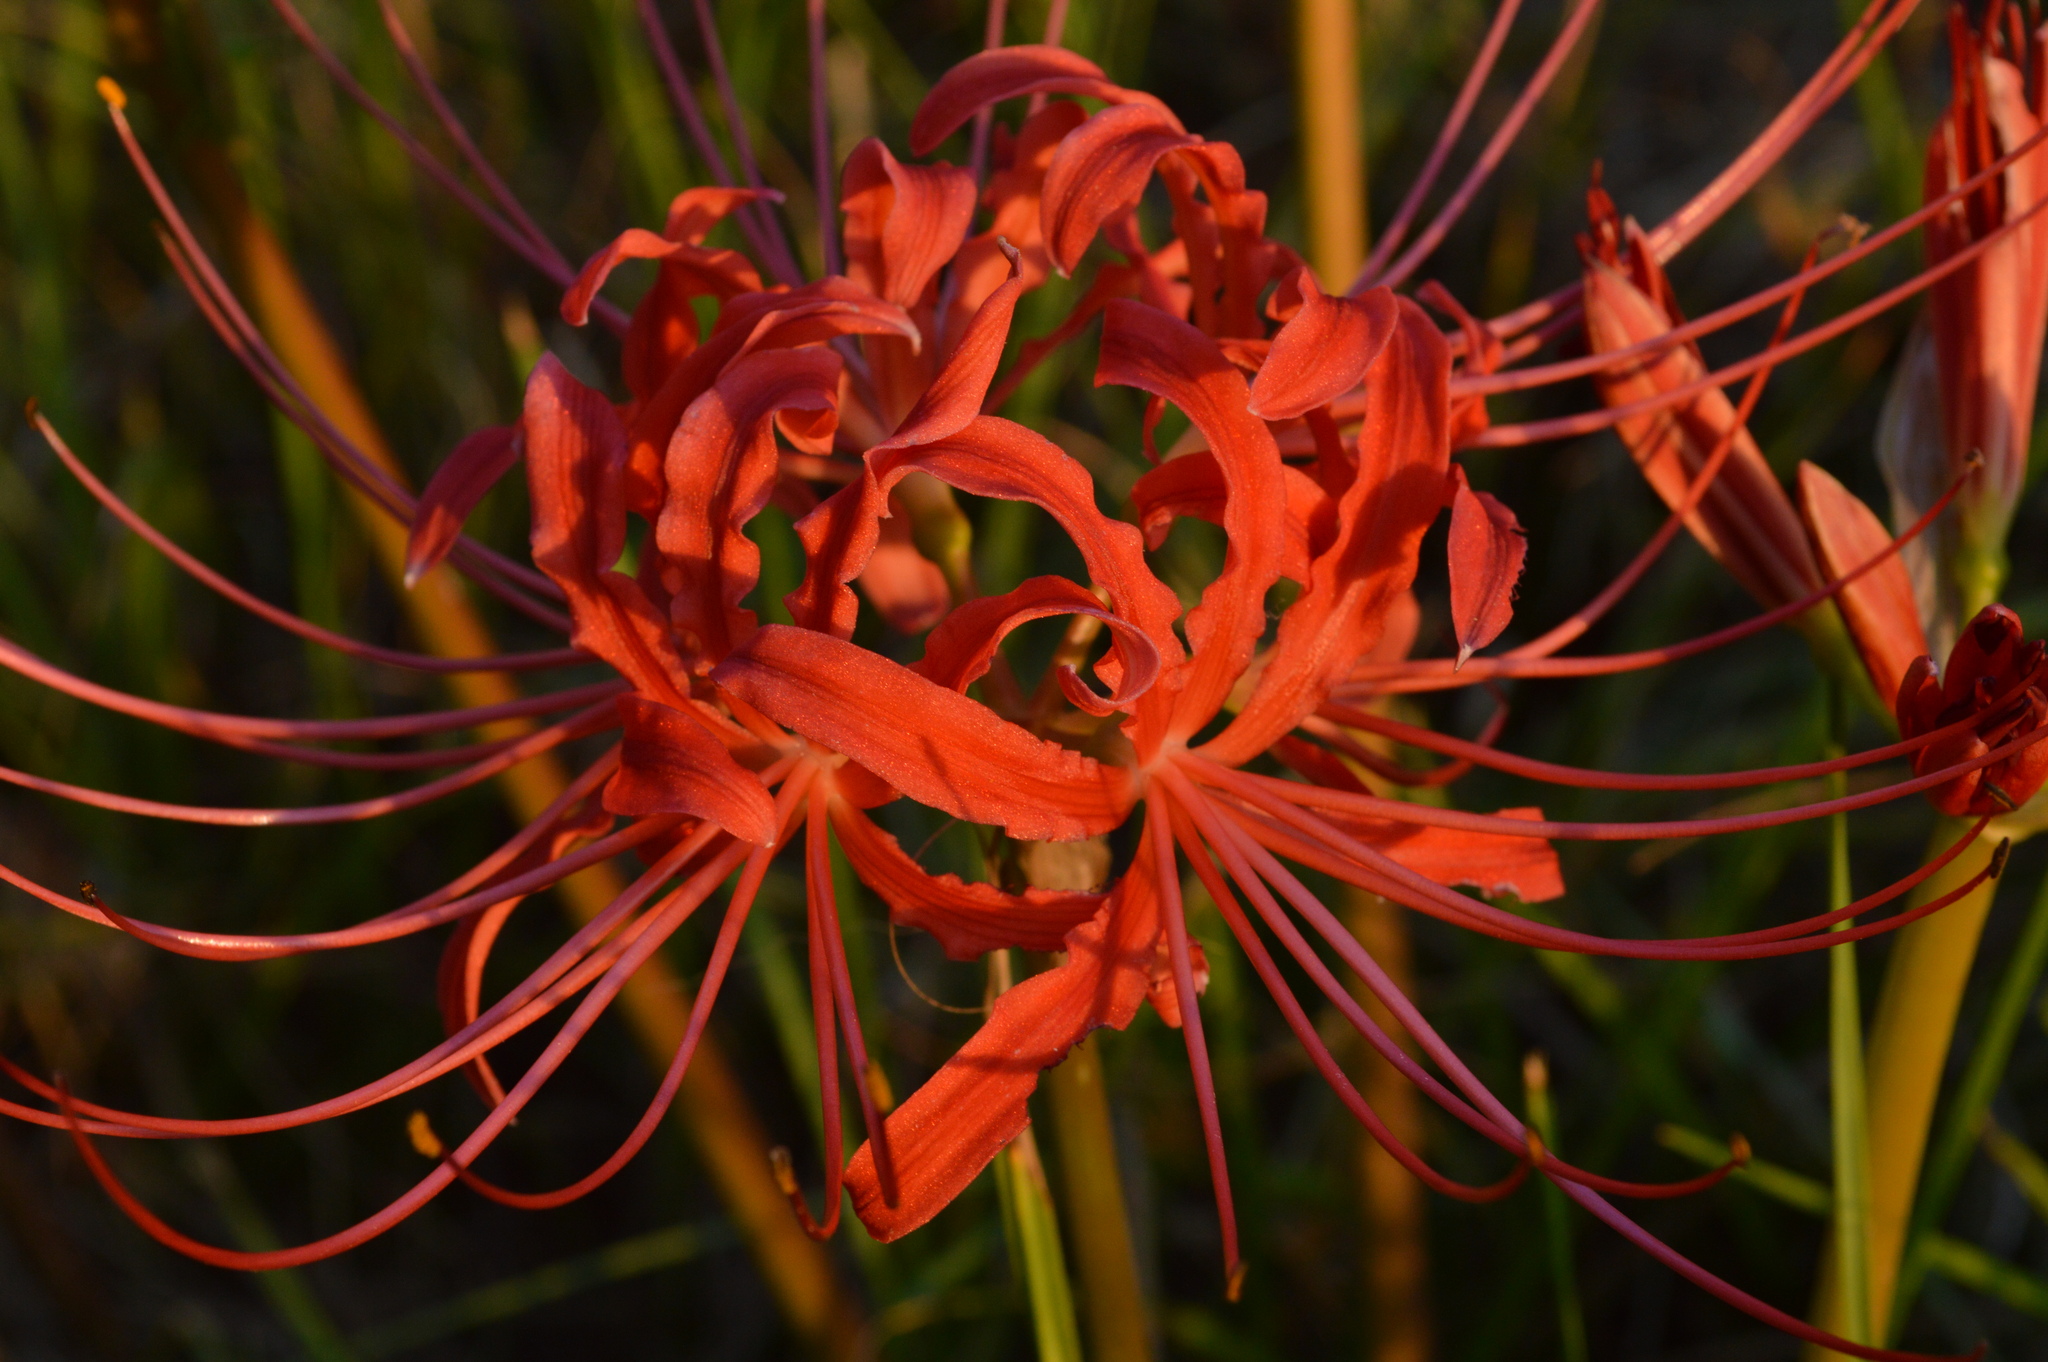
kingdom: Plantae
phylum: Tracheophyta
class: Liliopsida
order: Asparagales
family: Amaryllidaceae
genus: Lycoris
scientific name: Lycoris radiata
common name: Red spider lily
